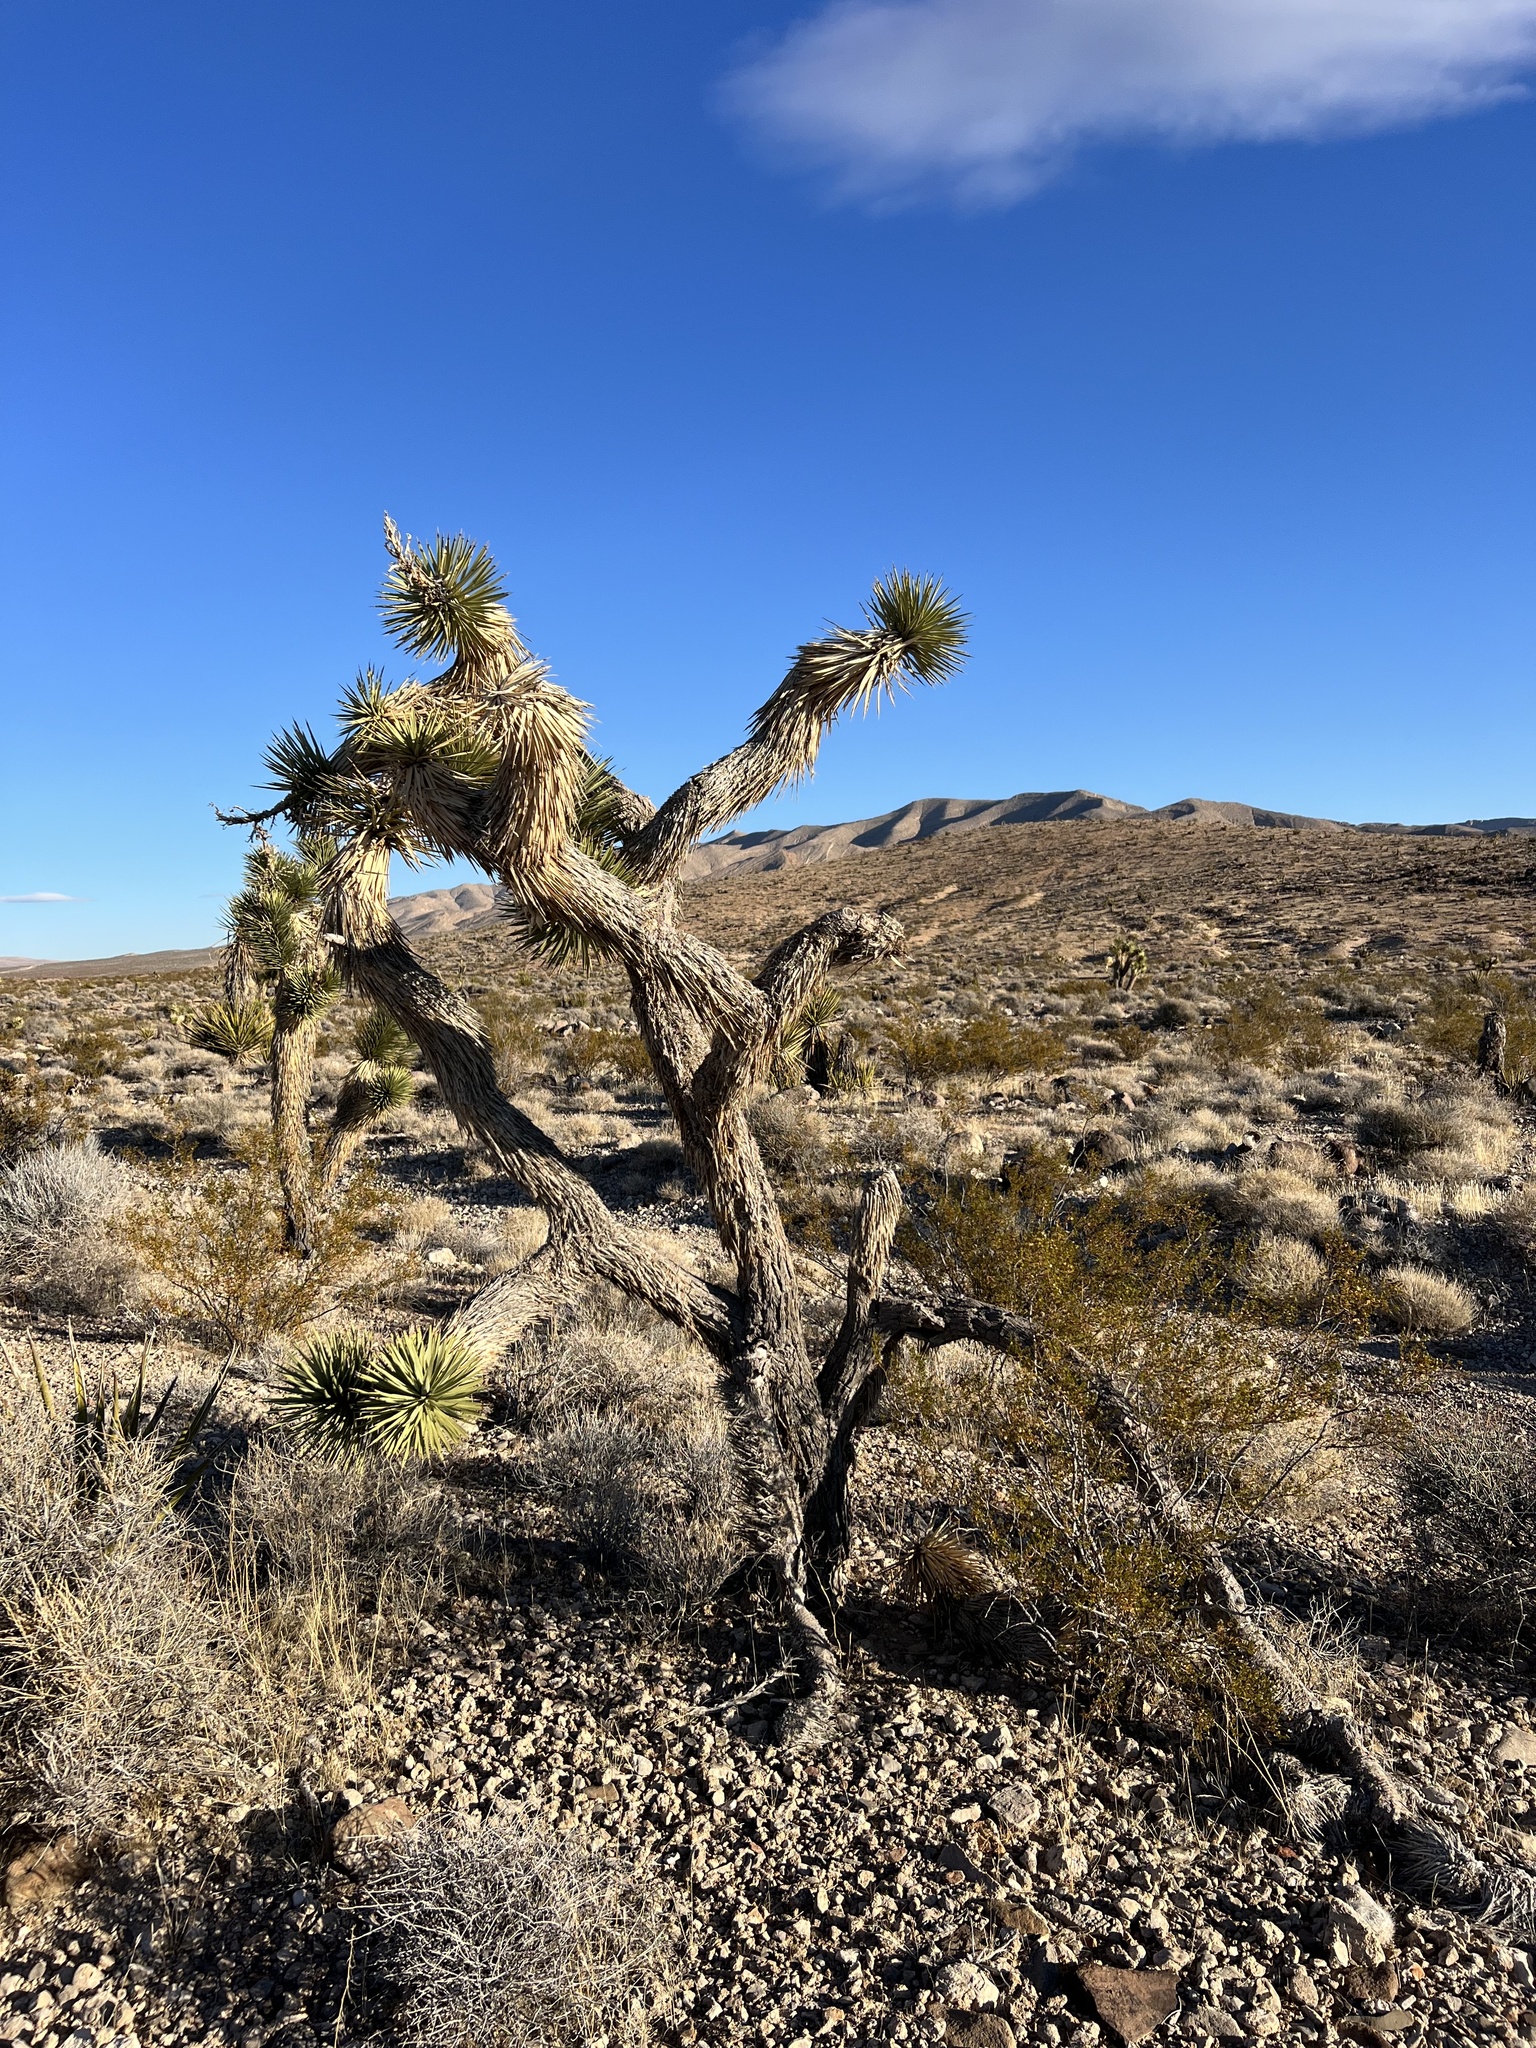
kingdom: Plantae
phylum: Tracheophyta
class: Liliopsida
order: Asparagales
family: Asparagaceae
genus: Yucca
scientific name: Yucca brevifolia
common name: Joshua tree
